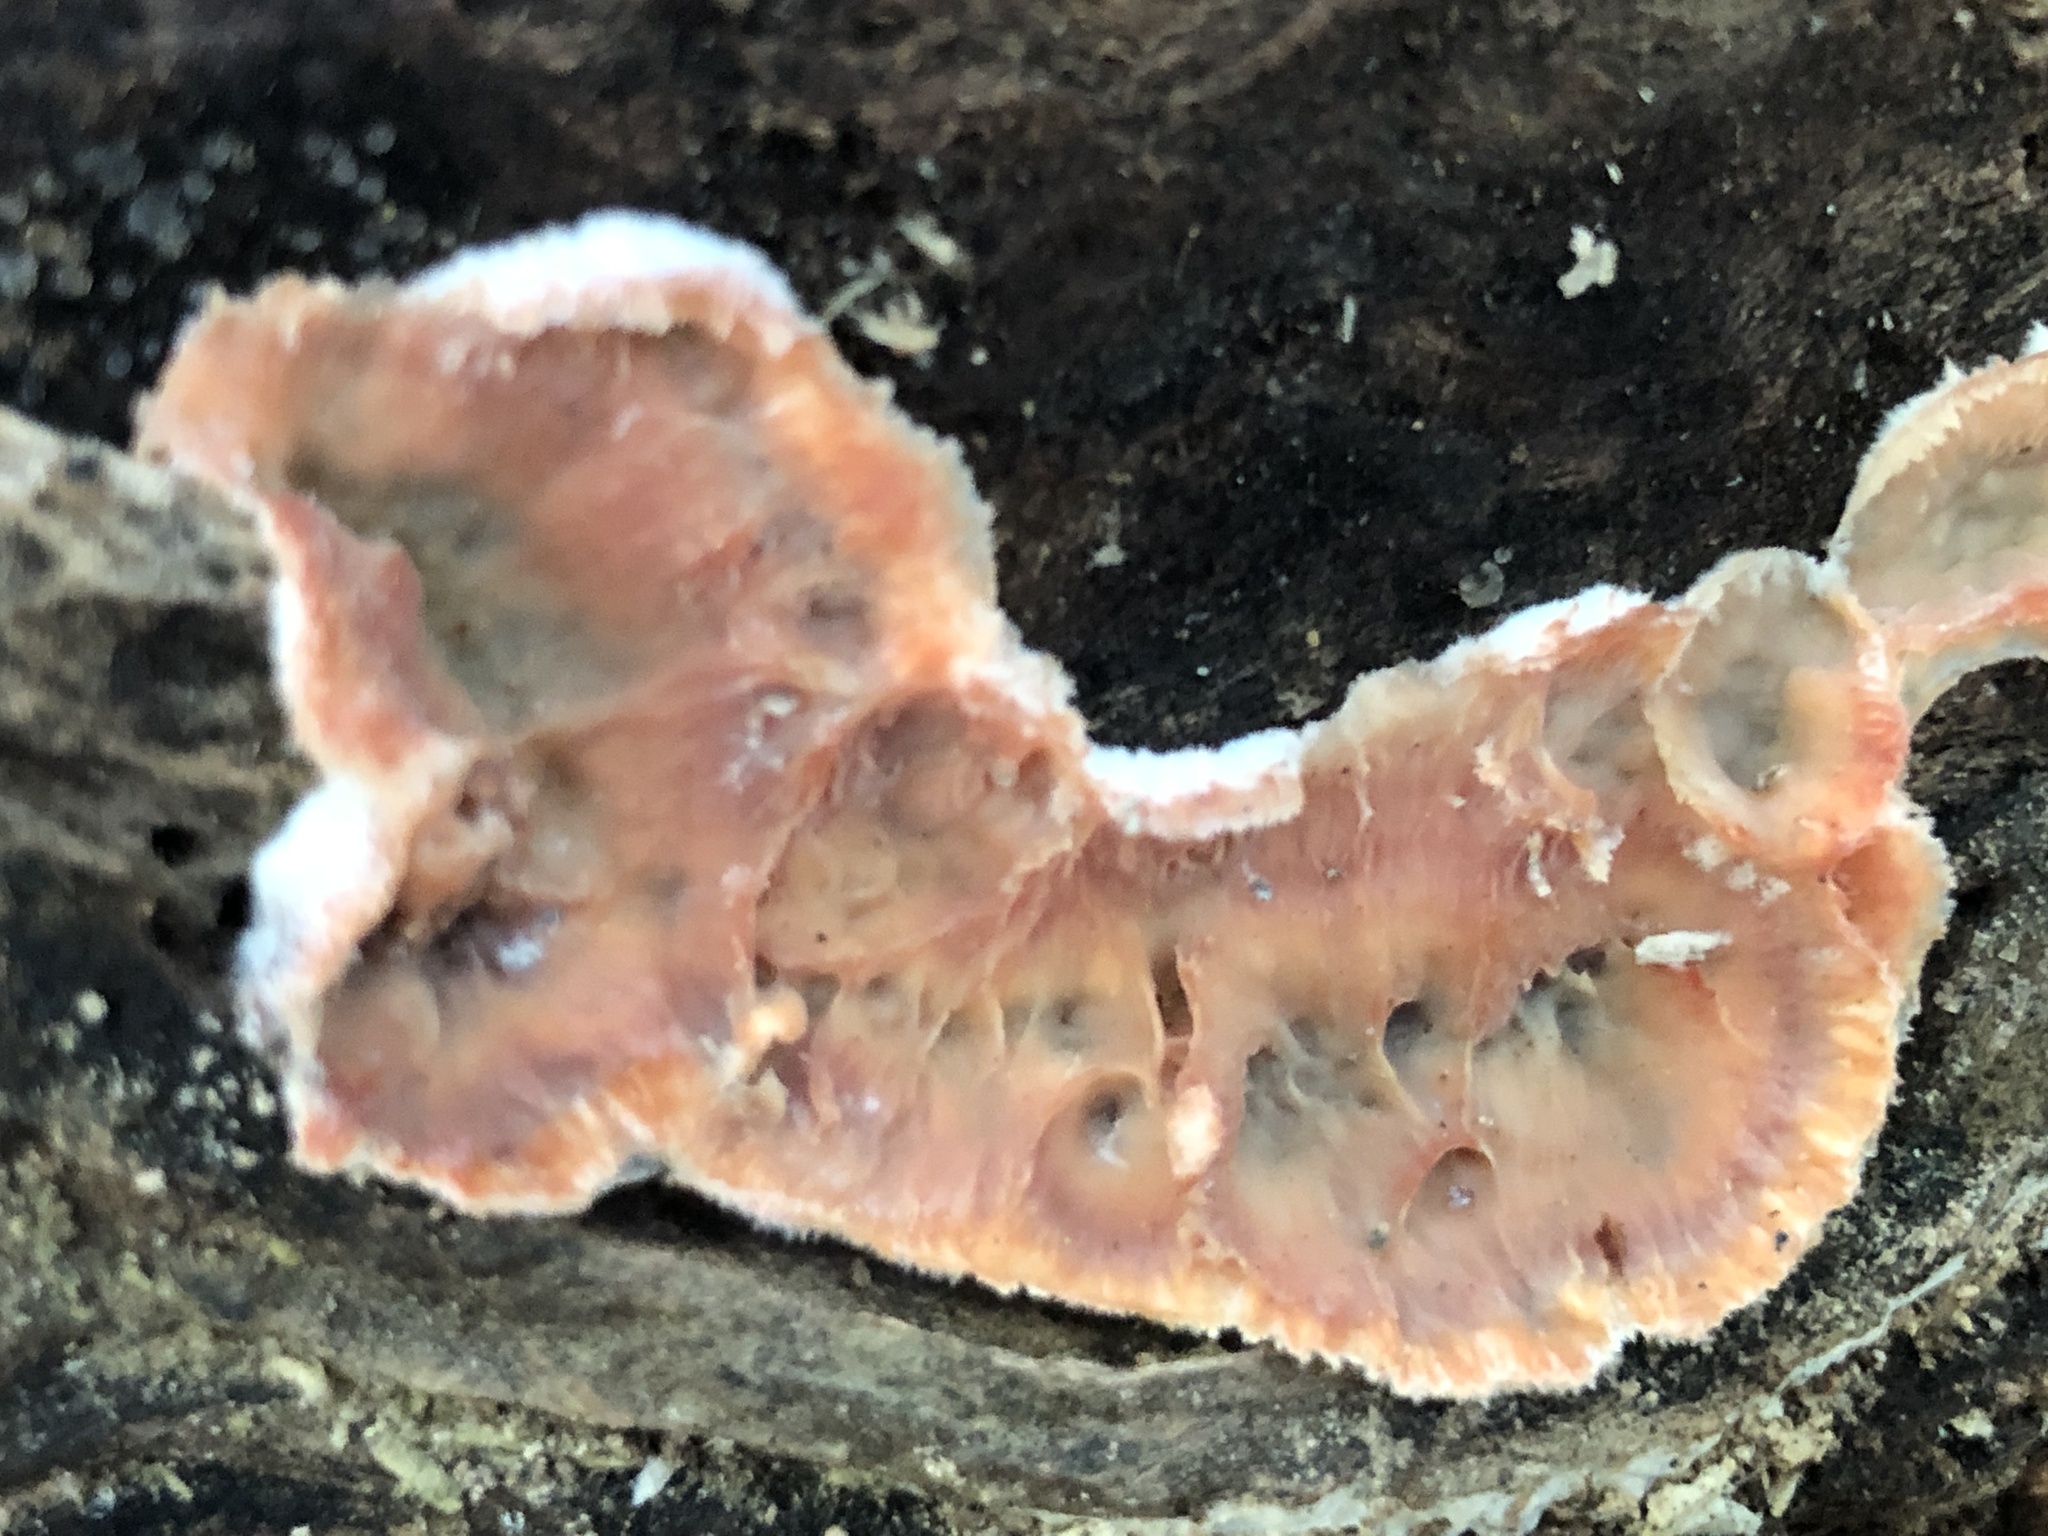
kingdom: Fungi
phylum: Basidiomycota
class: Agaricomycetes
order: Polyporales
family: Meruliaceae
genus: Phlebia
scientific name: Phlebia tremellosa
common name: Jelly rot
